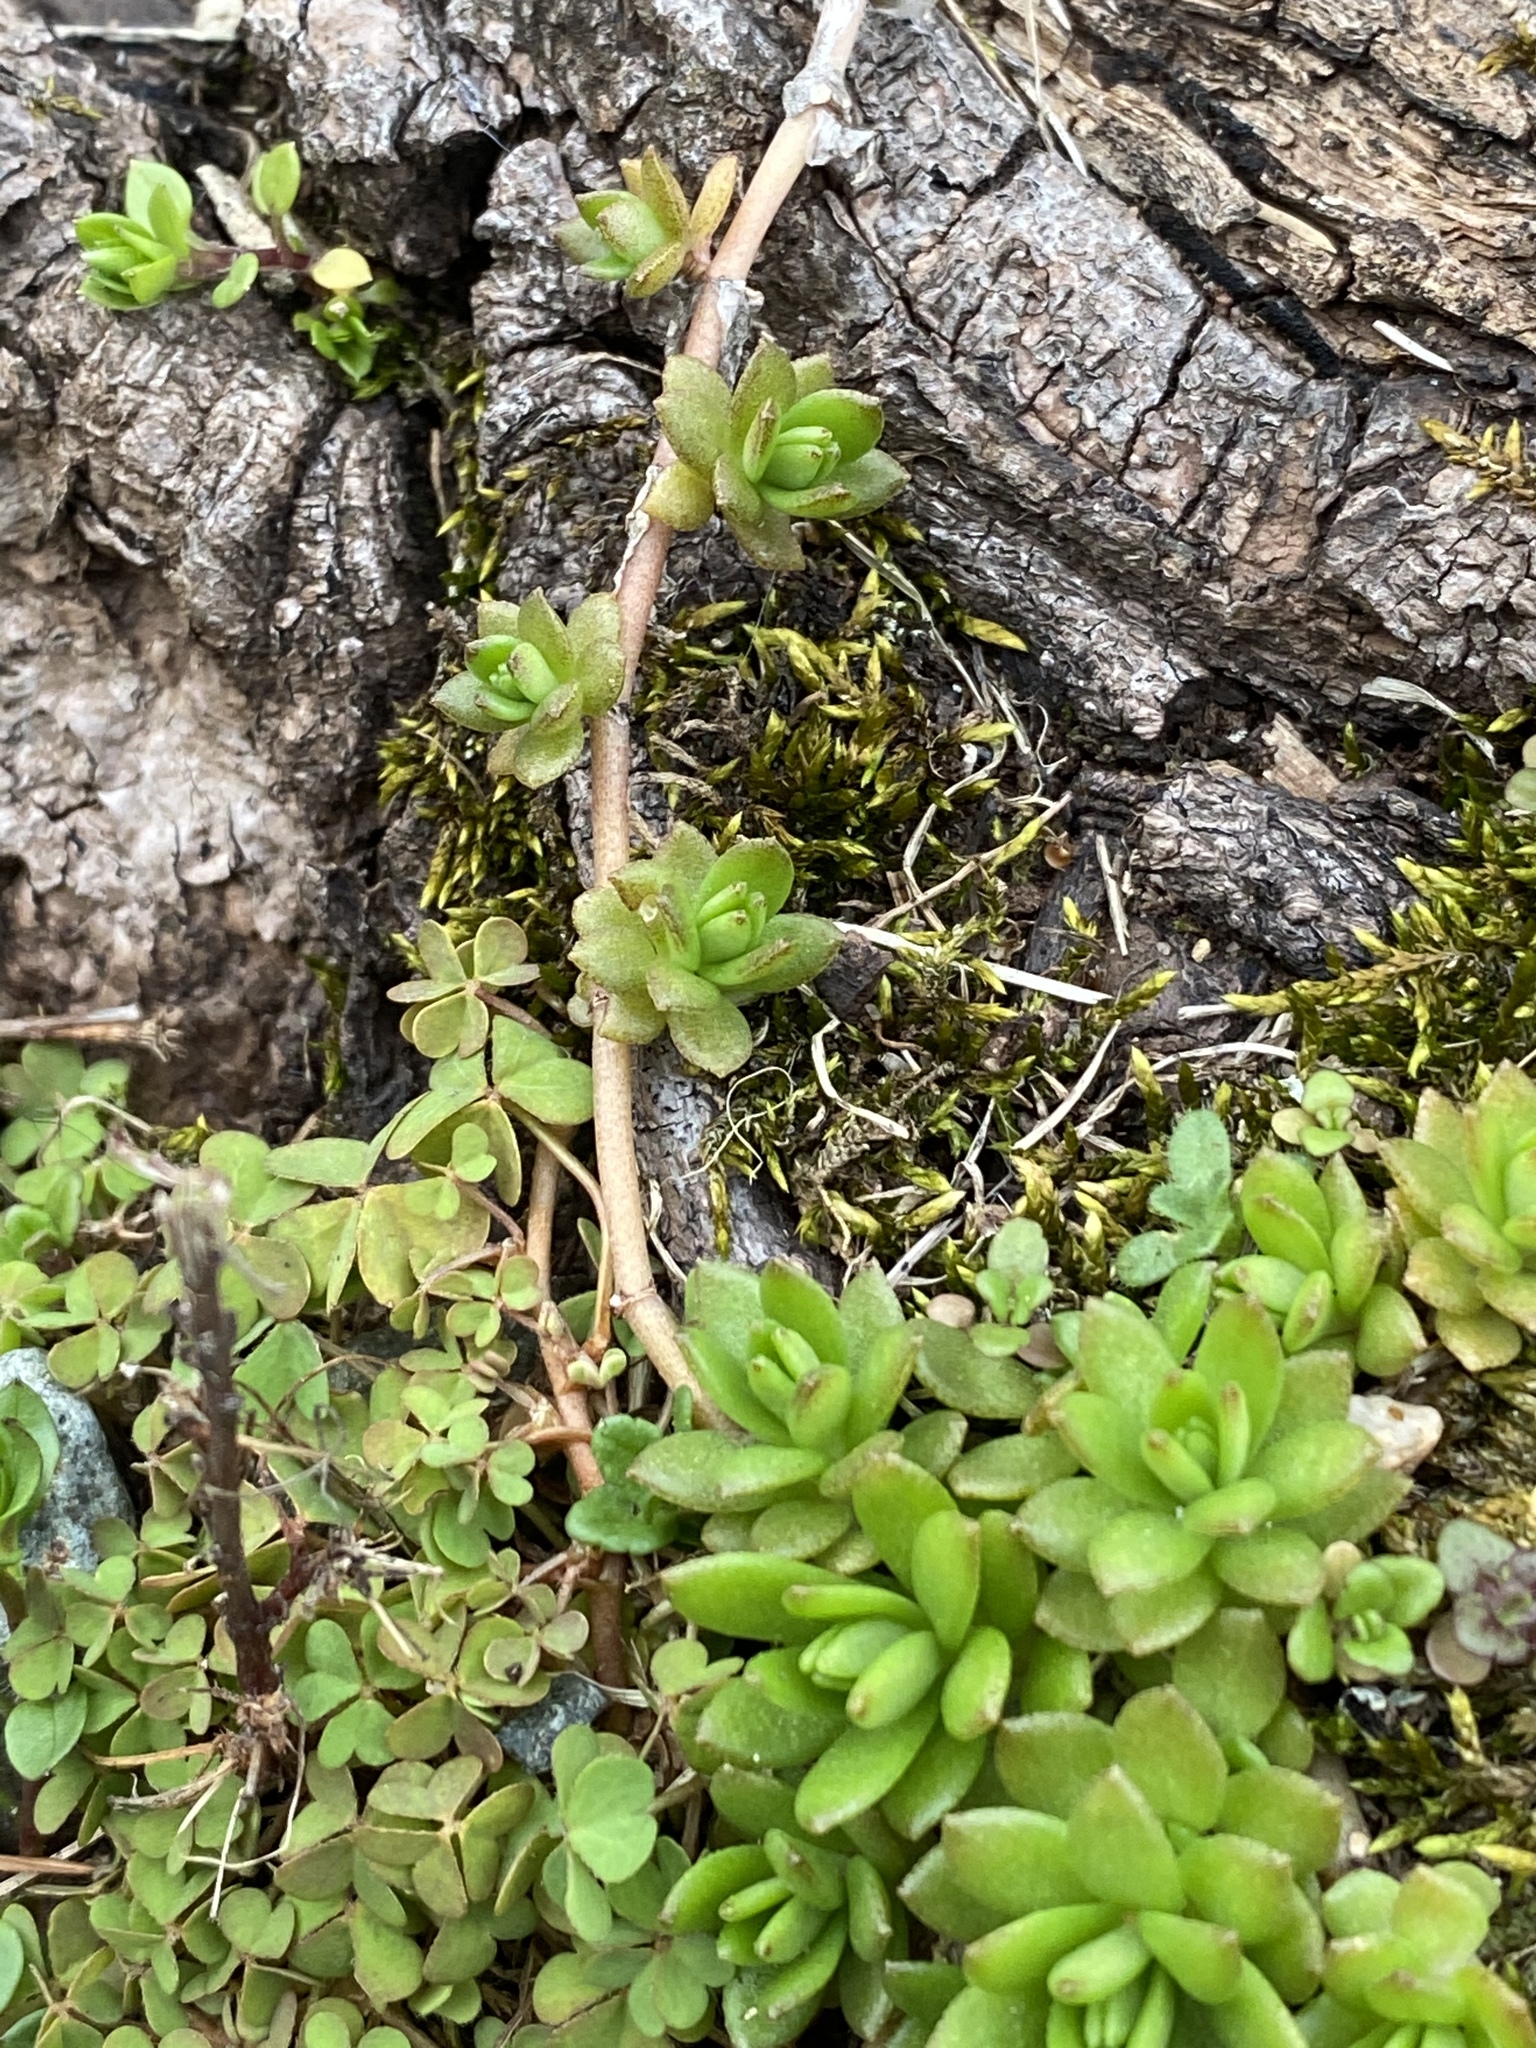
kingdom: Plantae
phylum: Tracheophyta
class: Magnoliopsida
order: Saxifragales
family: Crassulaceae
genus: Sedum
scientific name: Sedum sarmentosum
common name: Stringy stonecrop
